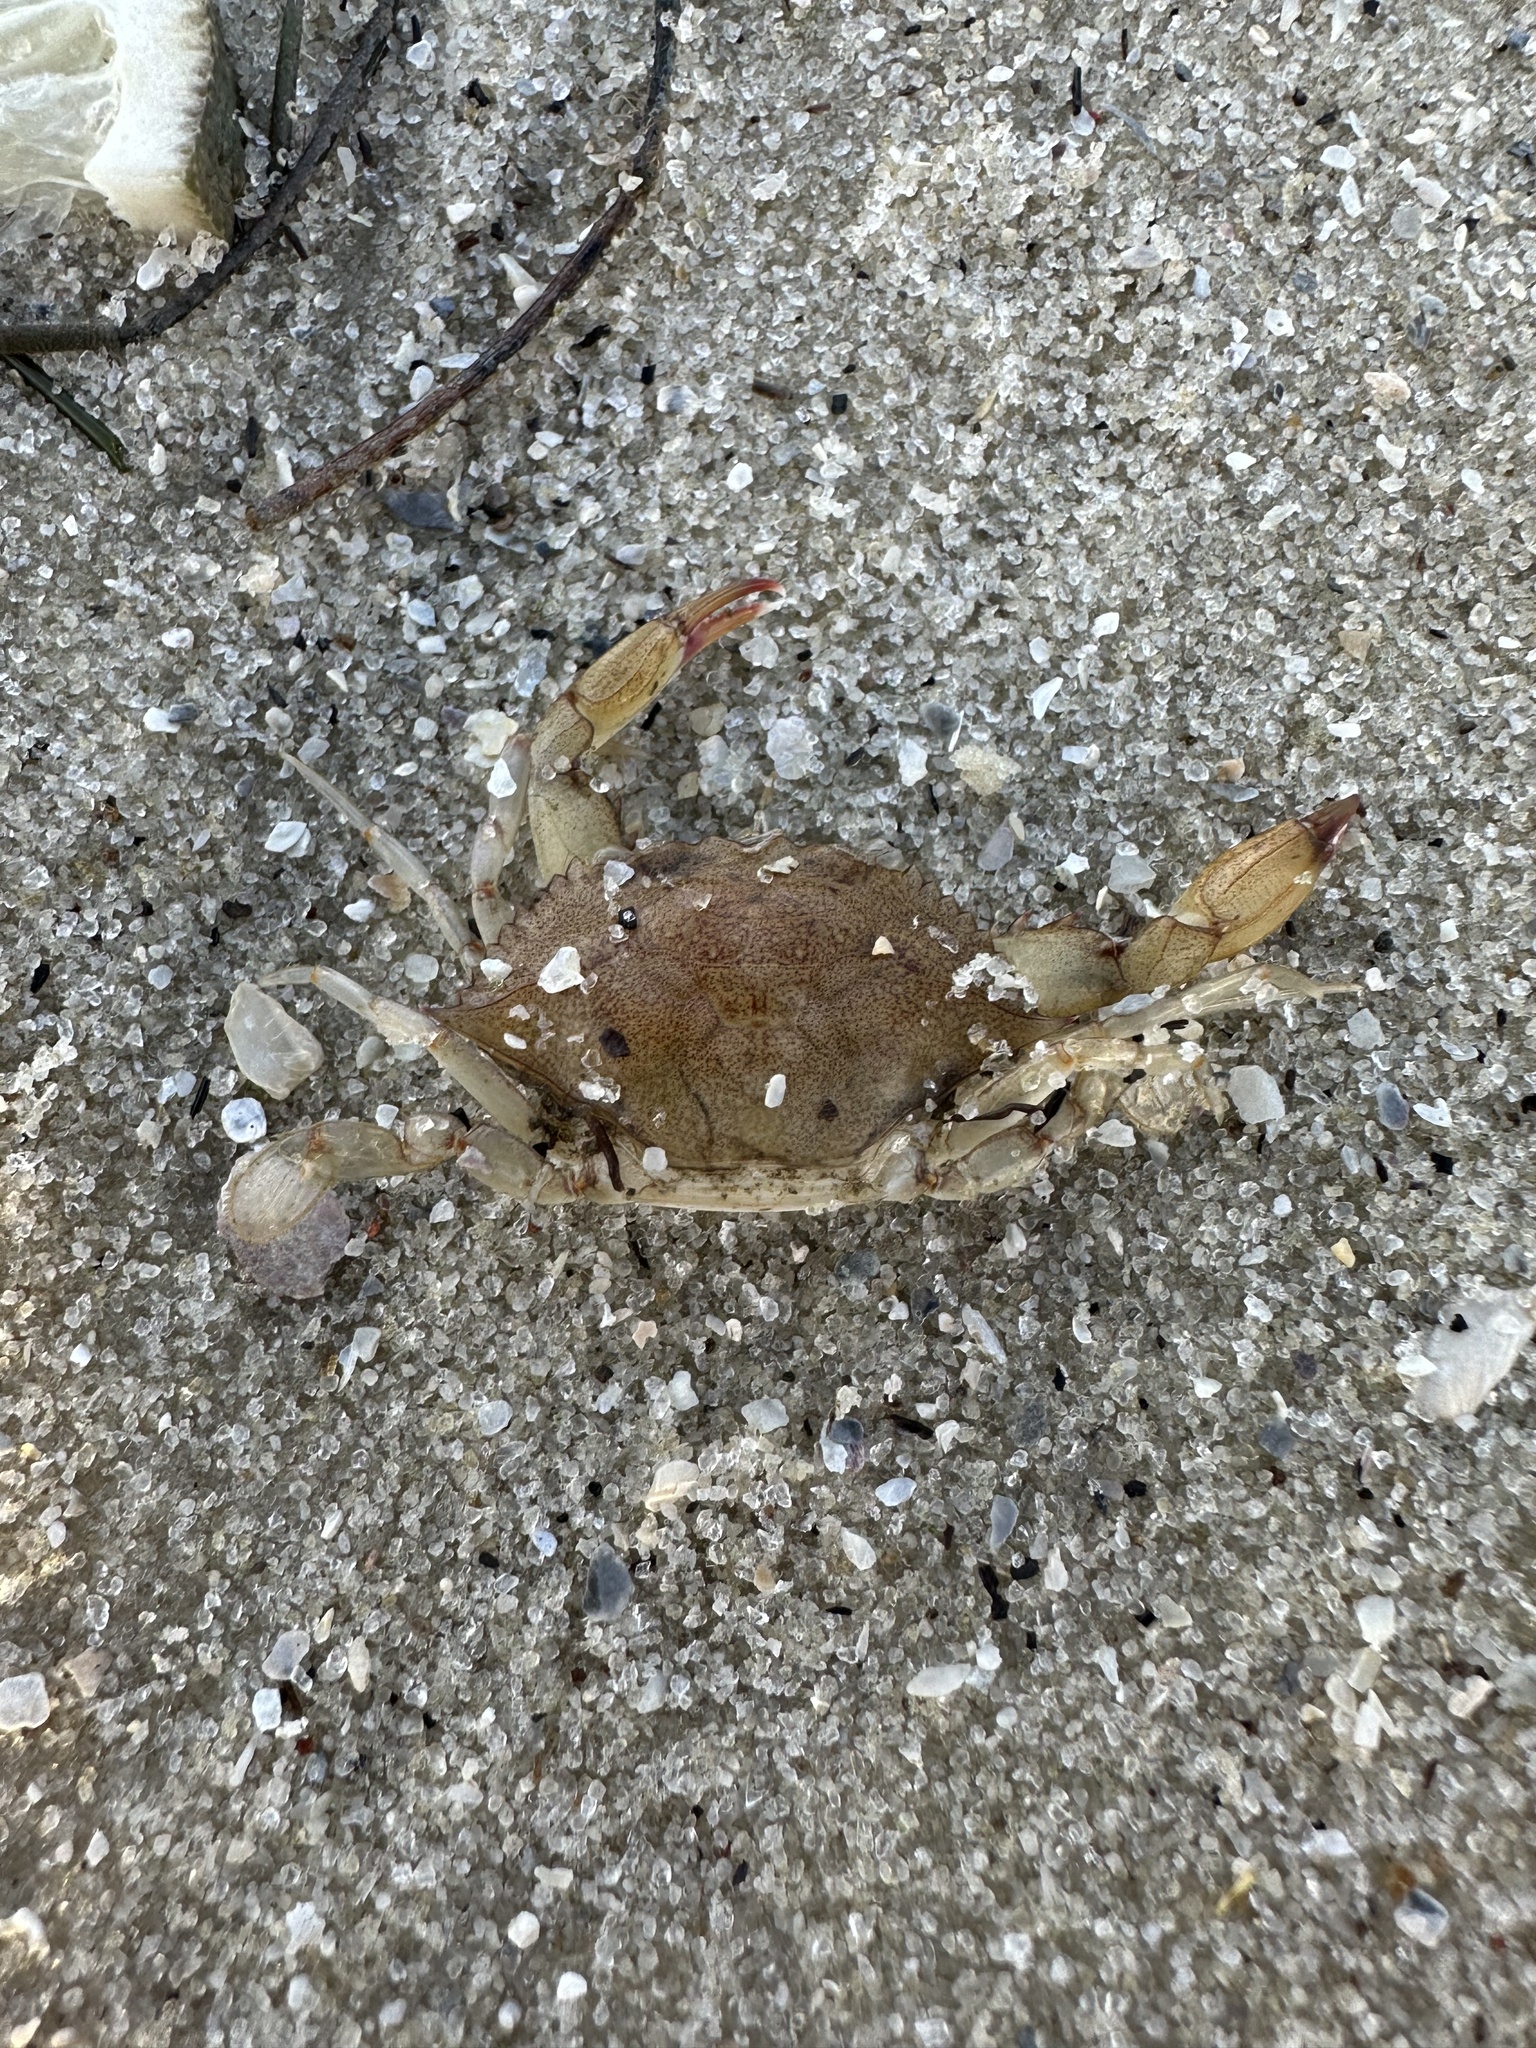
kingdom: Animalia
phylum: Arthropoda
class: Malacostraca
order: Decapoda
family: Portunidae
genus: Callinectes
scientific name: Callinectes sapidus
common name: Blue crab
